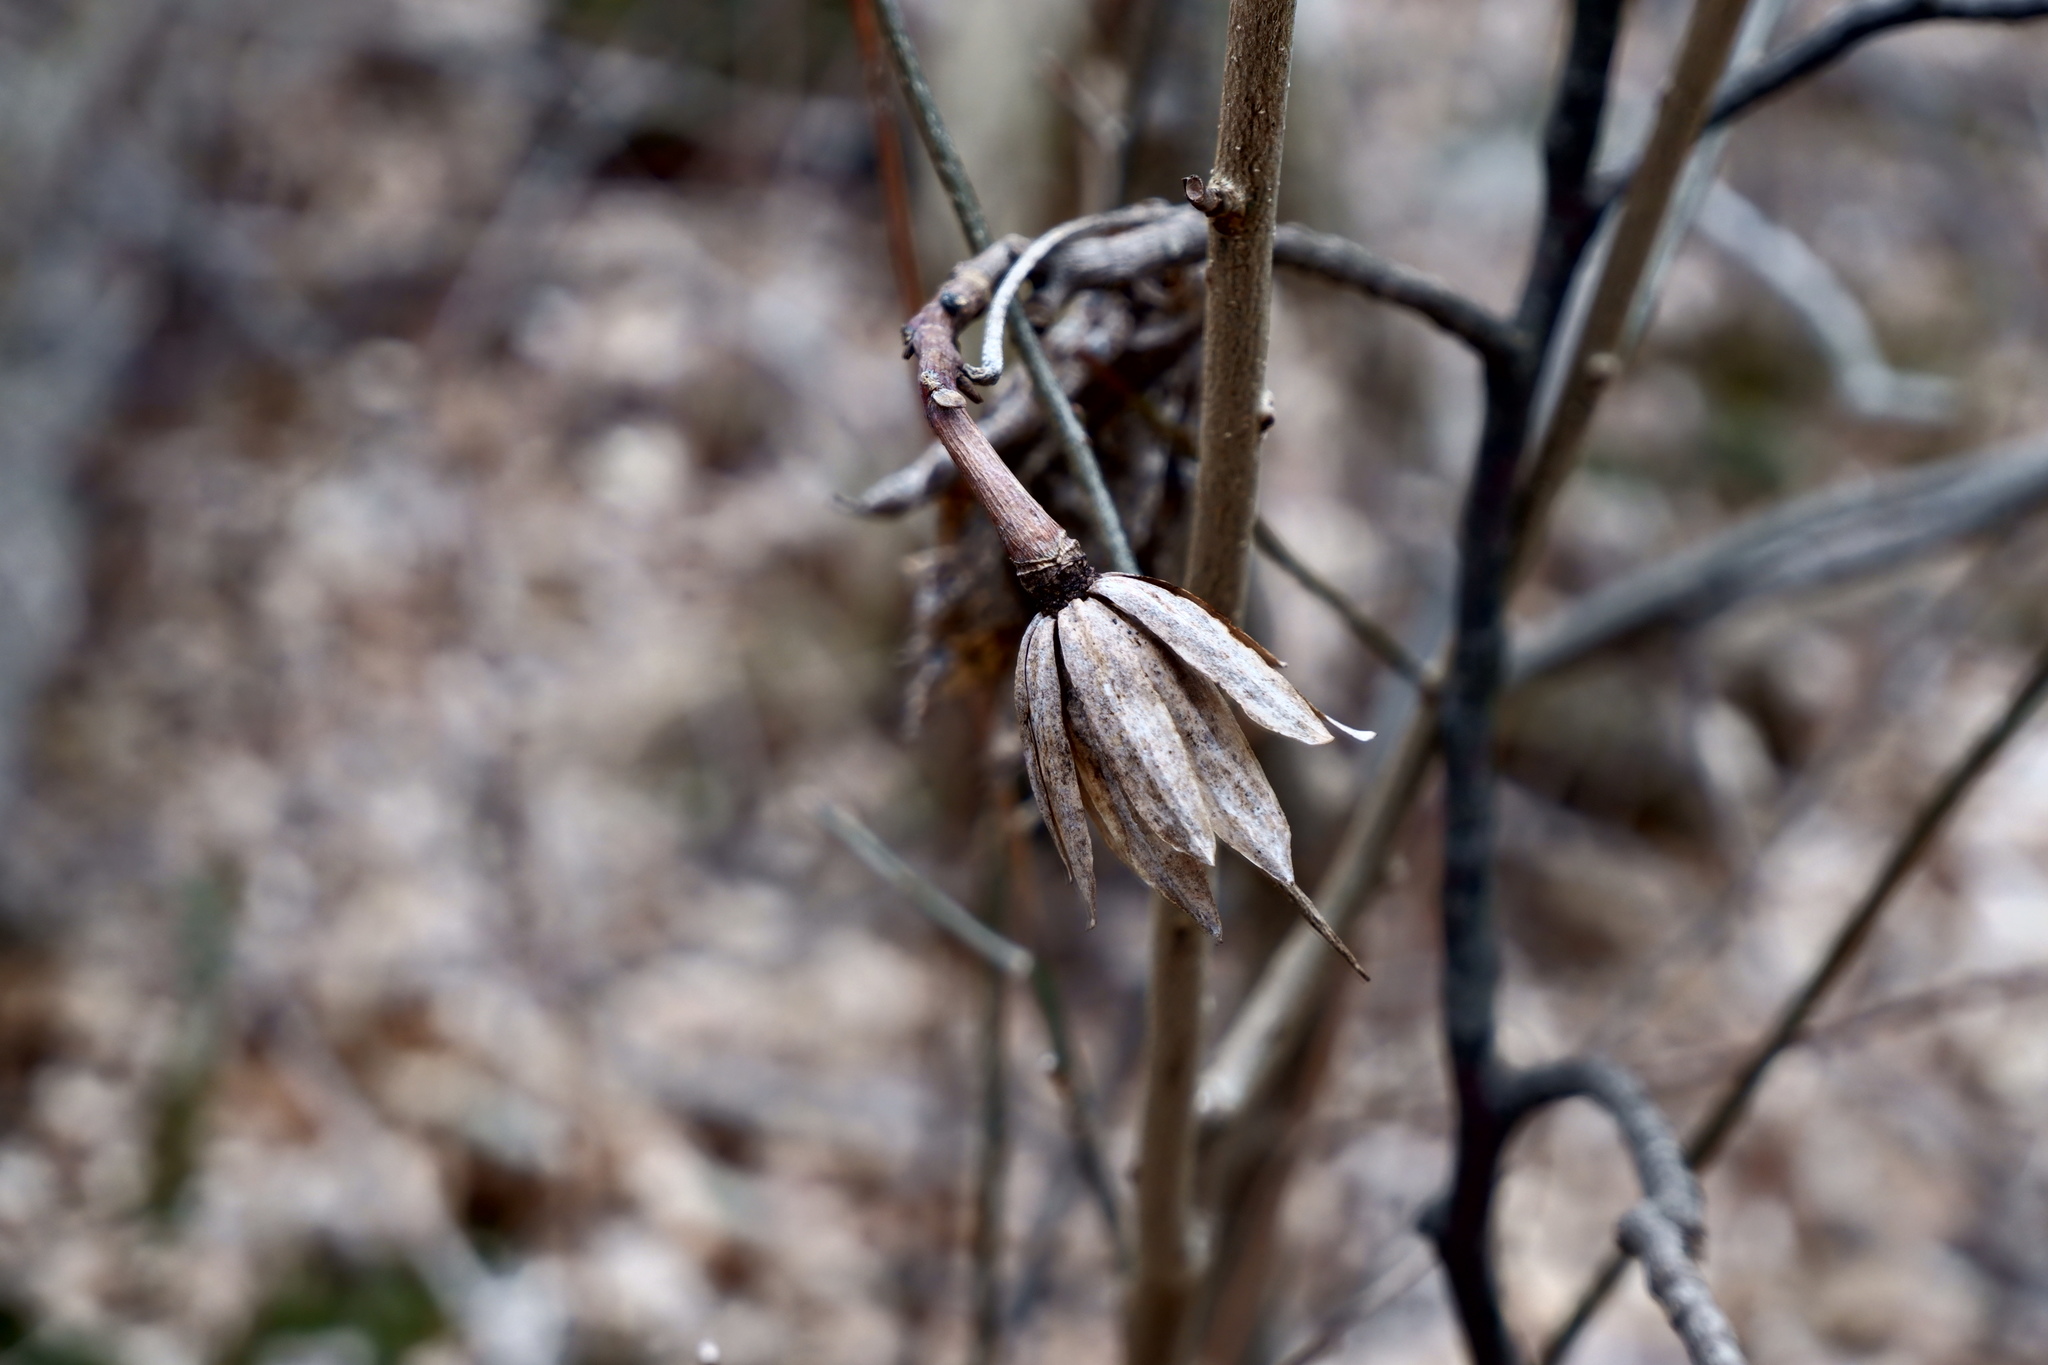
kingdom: Plantae
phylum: Tracheophyta
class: Magnoliopsida
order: Magnoliales
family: Magnoliaceae
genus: Liriodendron
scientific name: Liriodendron tulipifera
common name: Tulip tree
